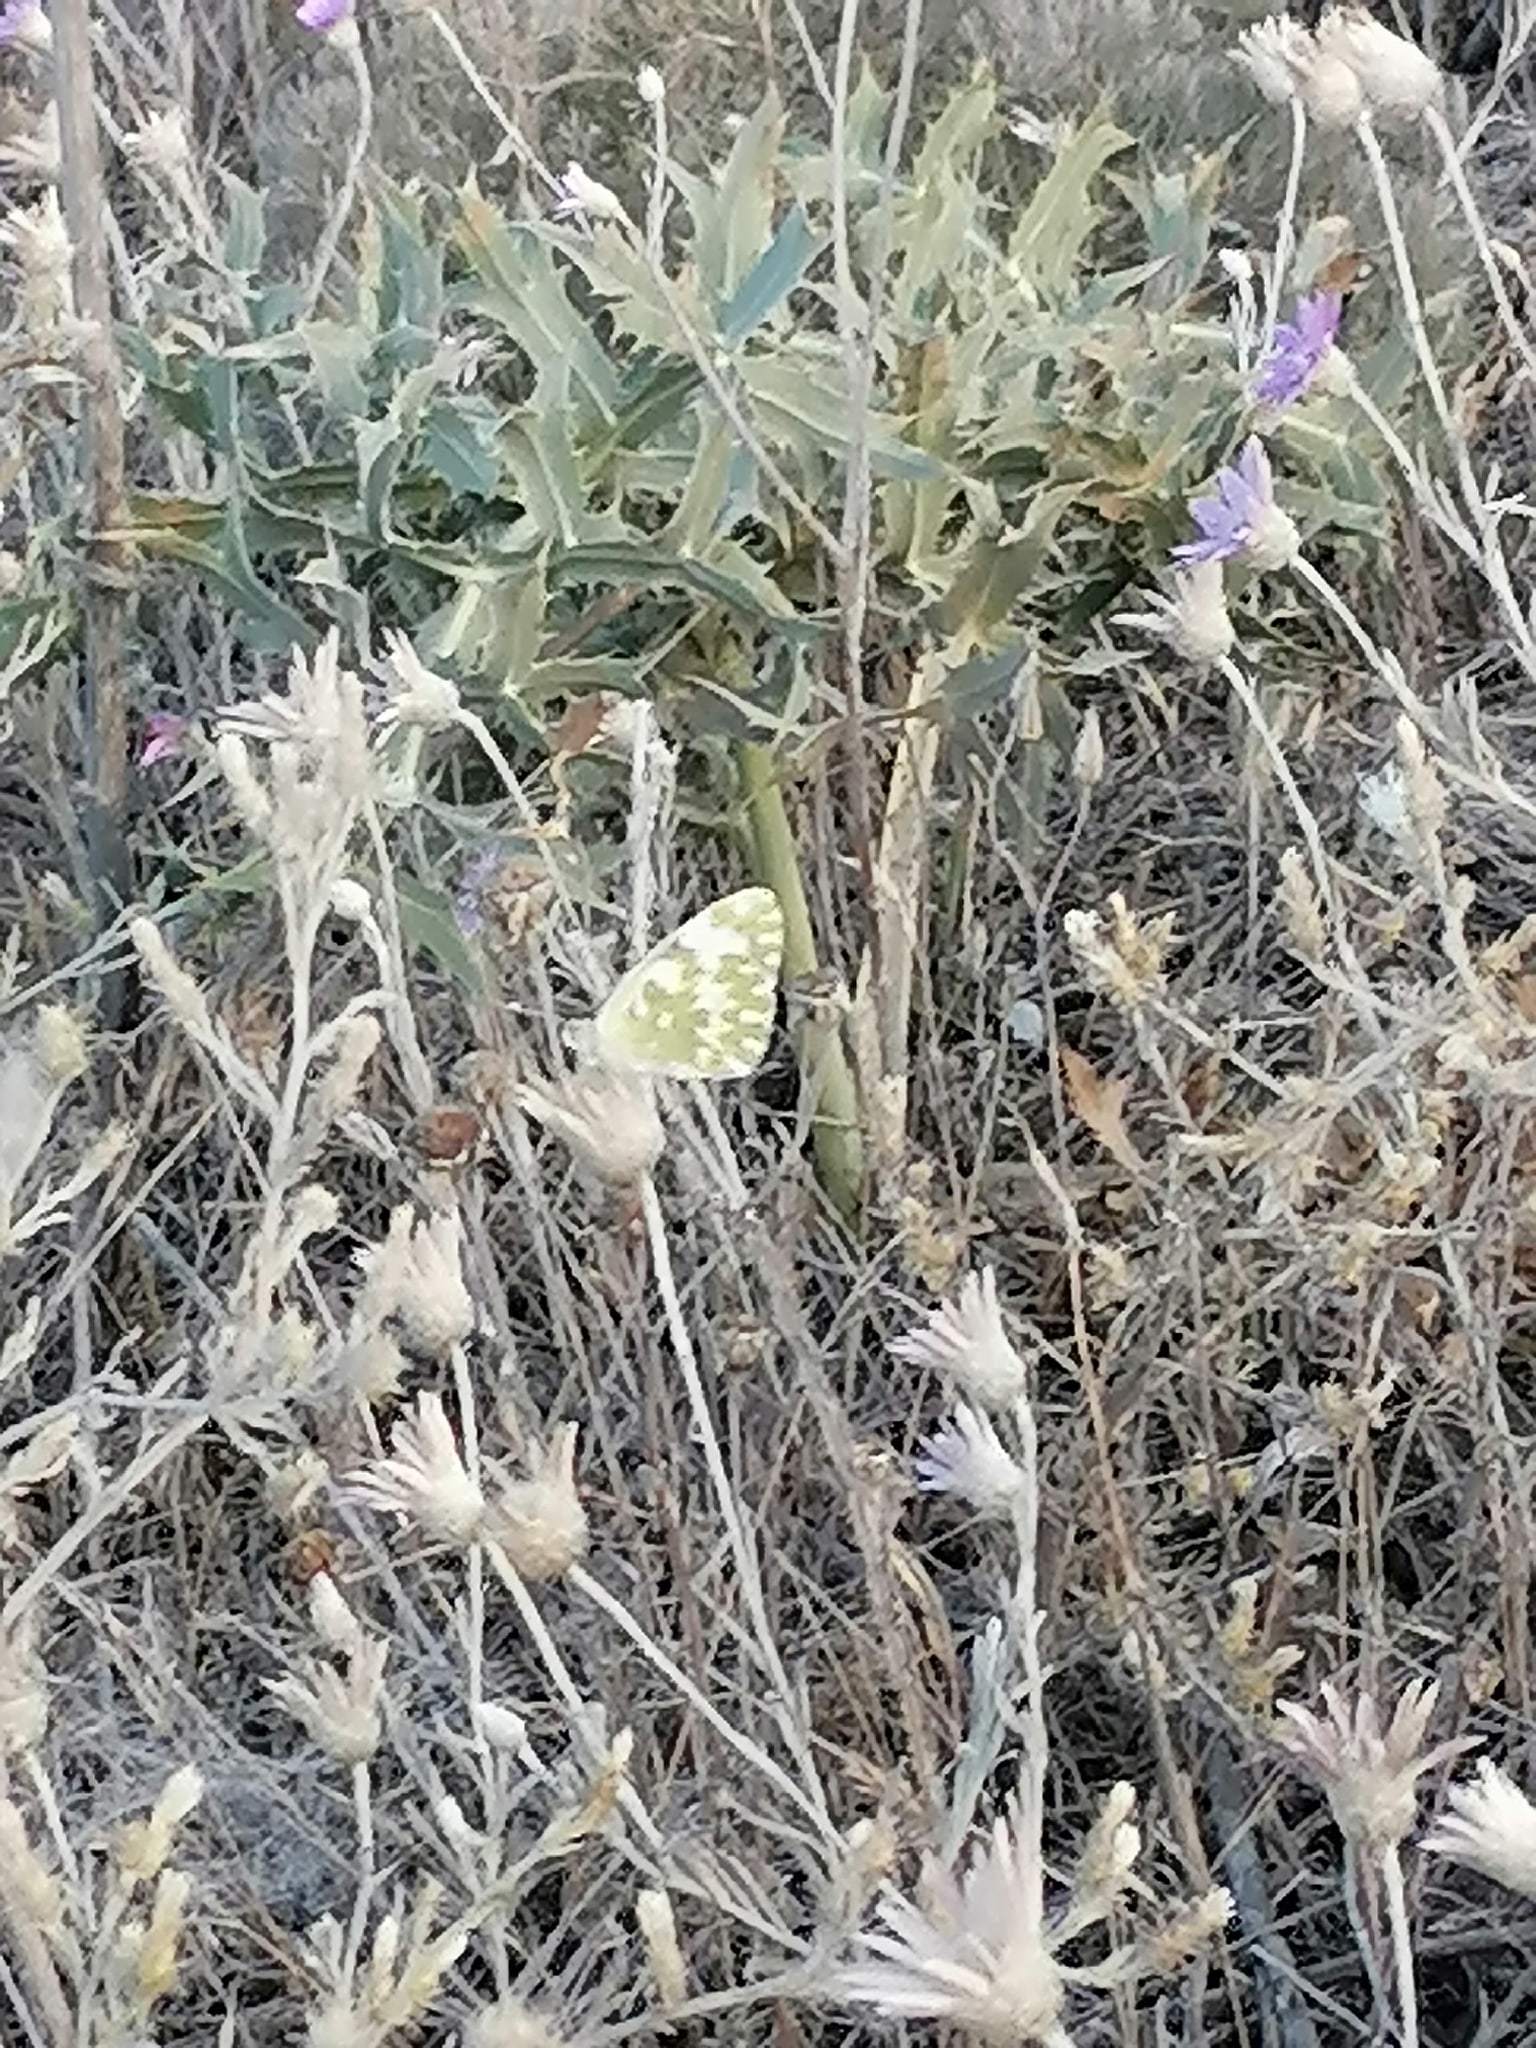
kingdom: Animalia
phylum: Arthropoda
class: Insecta
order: Lepidoptera
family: Pieridae
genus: Pontia
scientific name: Pontia edusa
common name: Eastern bath white
